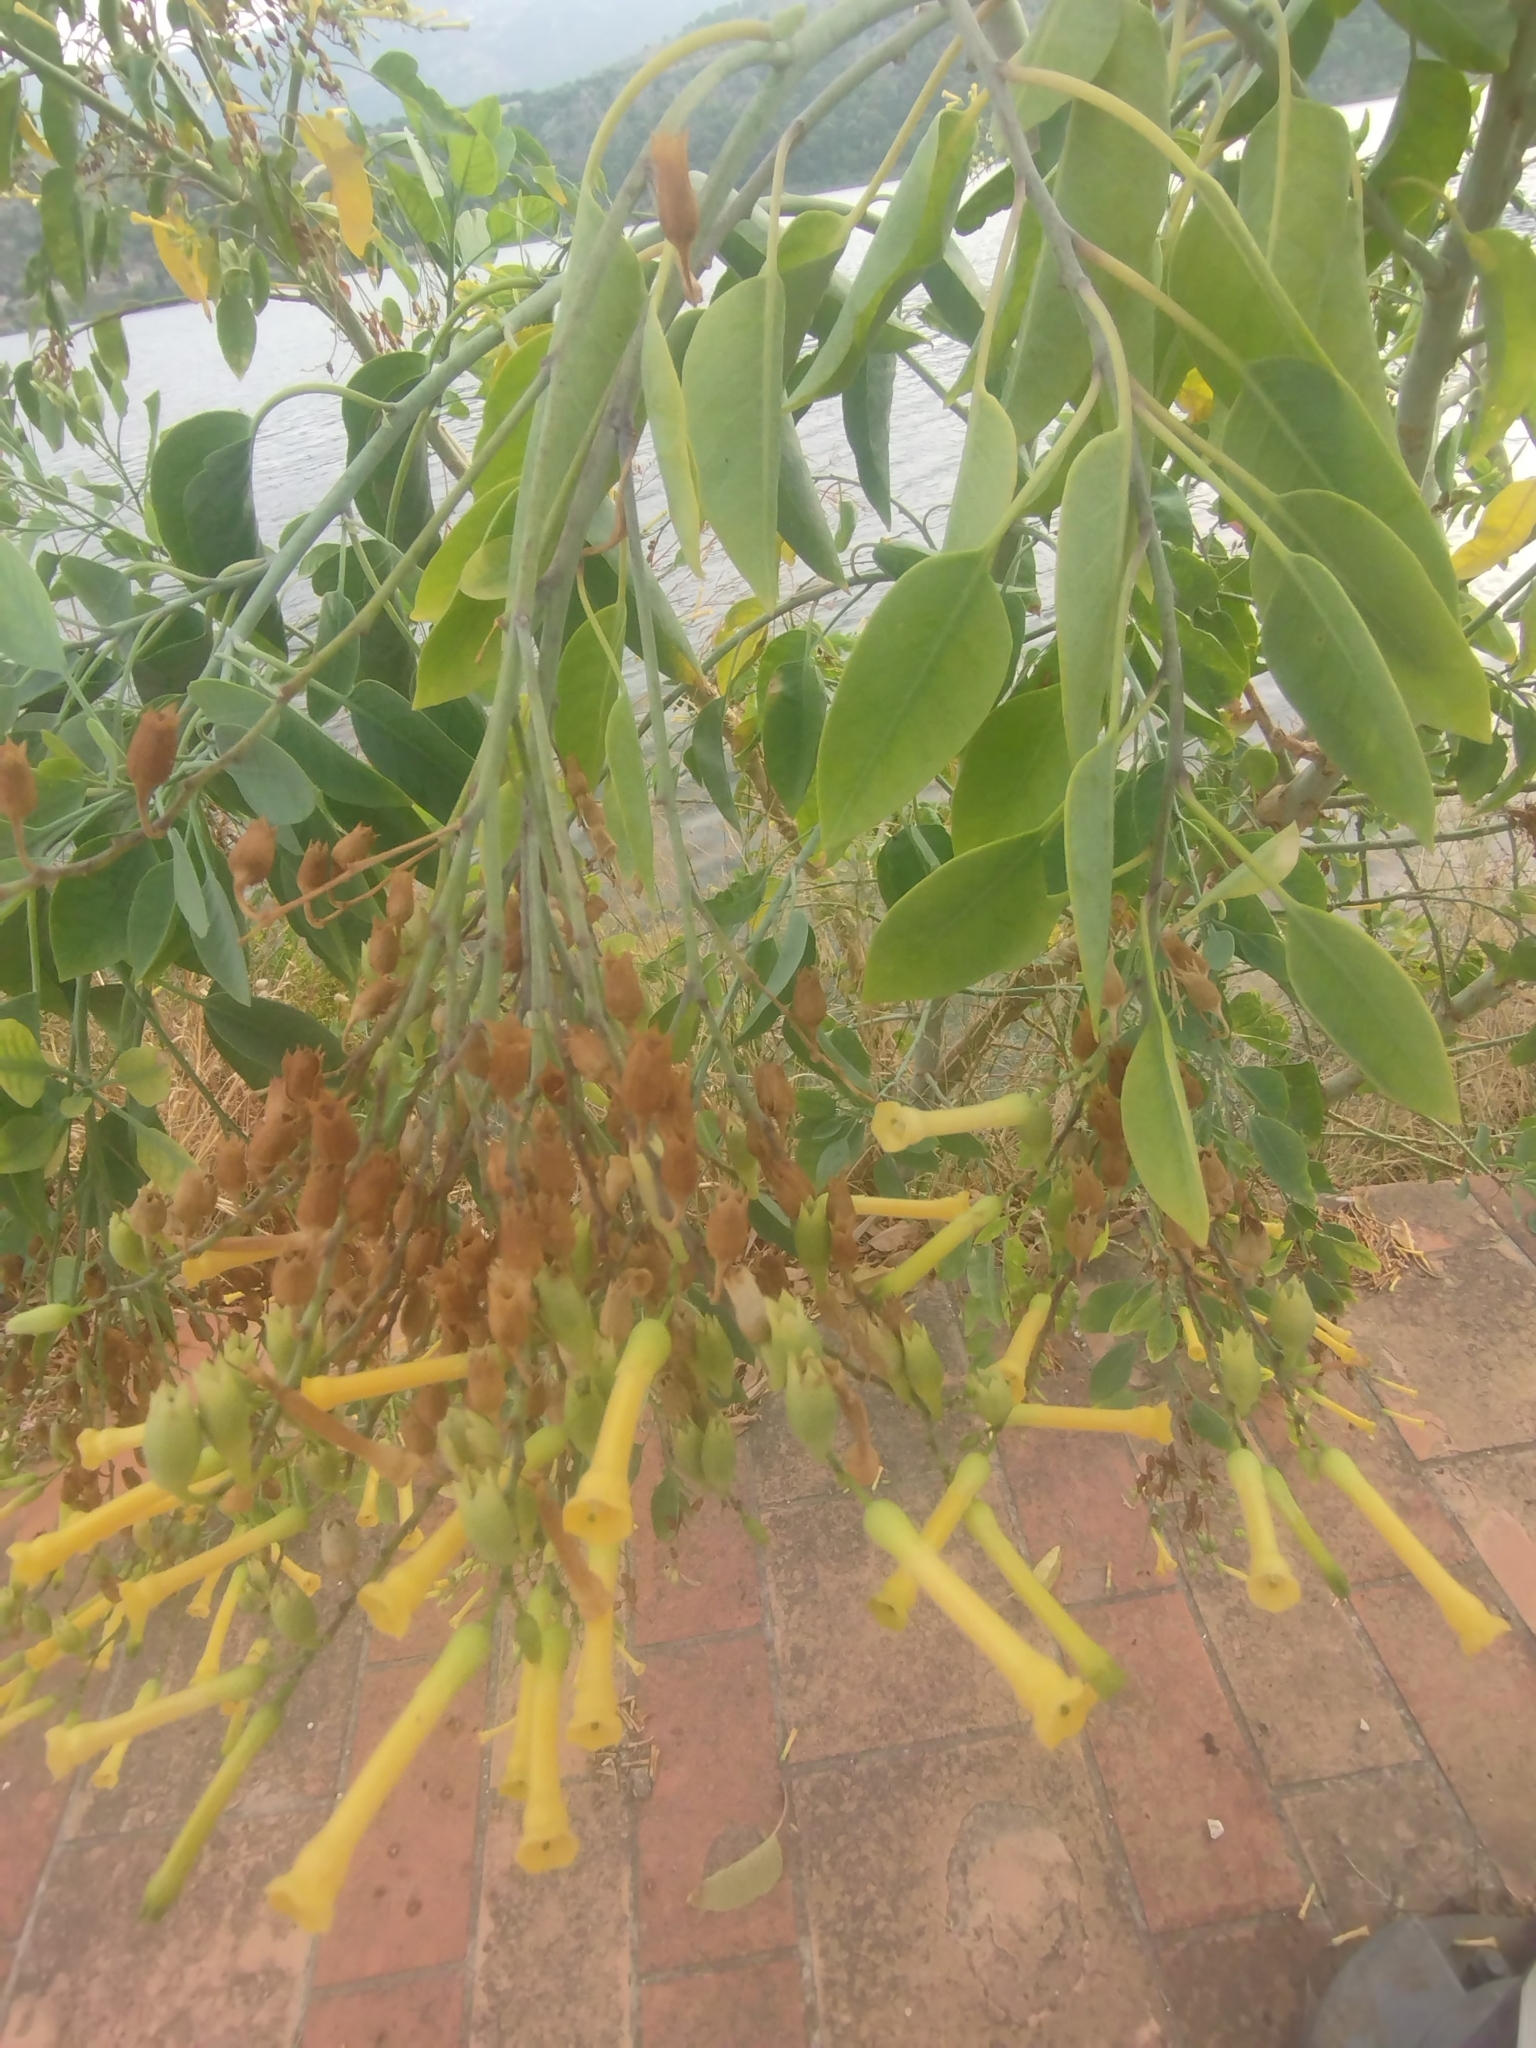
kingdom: Plantae
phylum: Tracheophyta
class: Magnoliopsida
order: Solanales
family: Solanaceae
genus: Nicotiana
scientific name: Nicotiana glauca
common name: Tree tobacco
